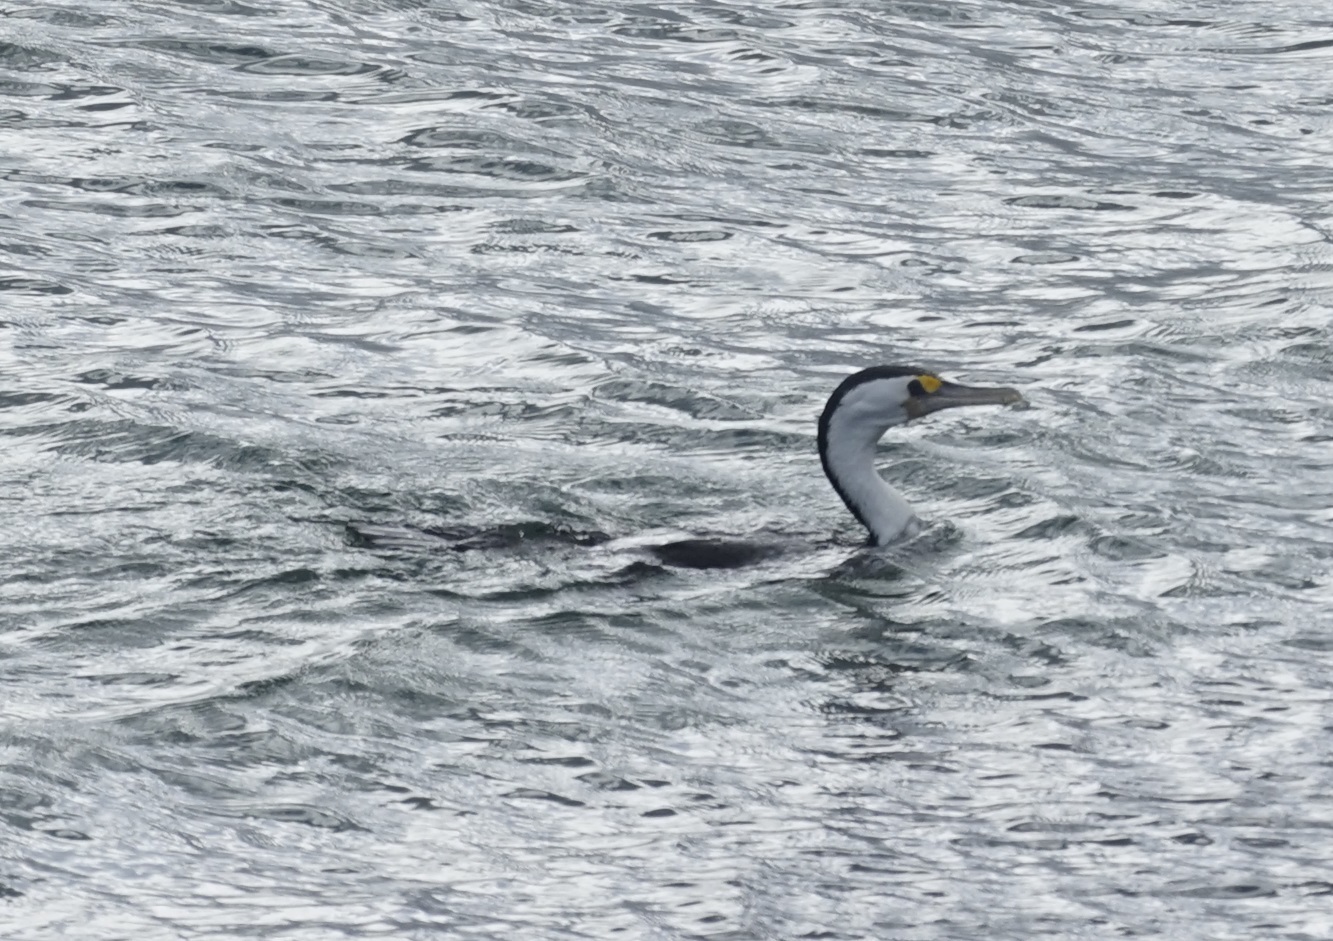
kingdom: Animalia
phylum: Chordata
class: Aves
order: Suliformes
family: Phalacrocoracidae
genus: Phalacrocorax
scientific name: Phalacrocorax varius
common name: Pied cormorant
